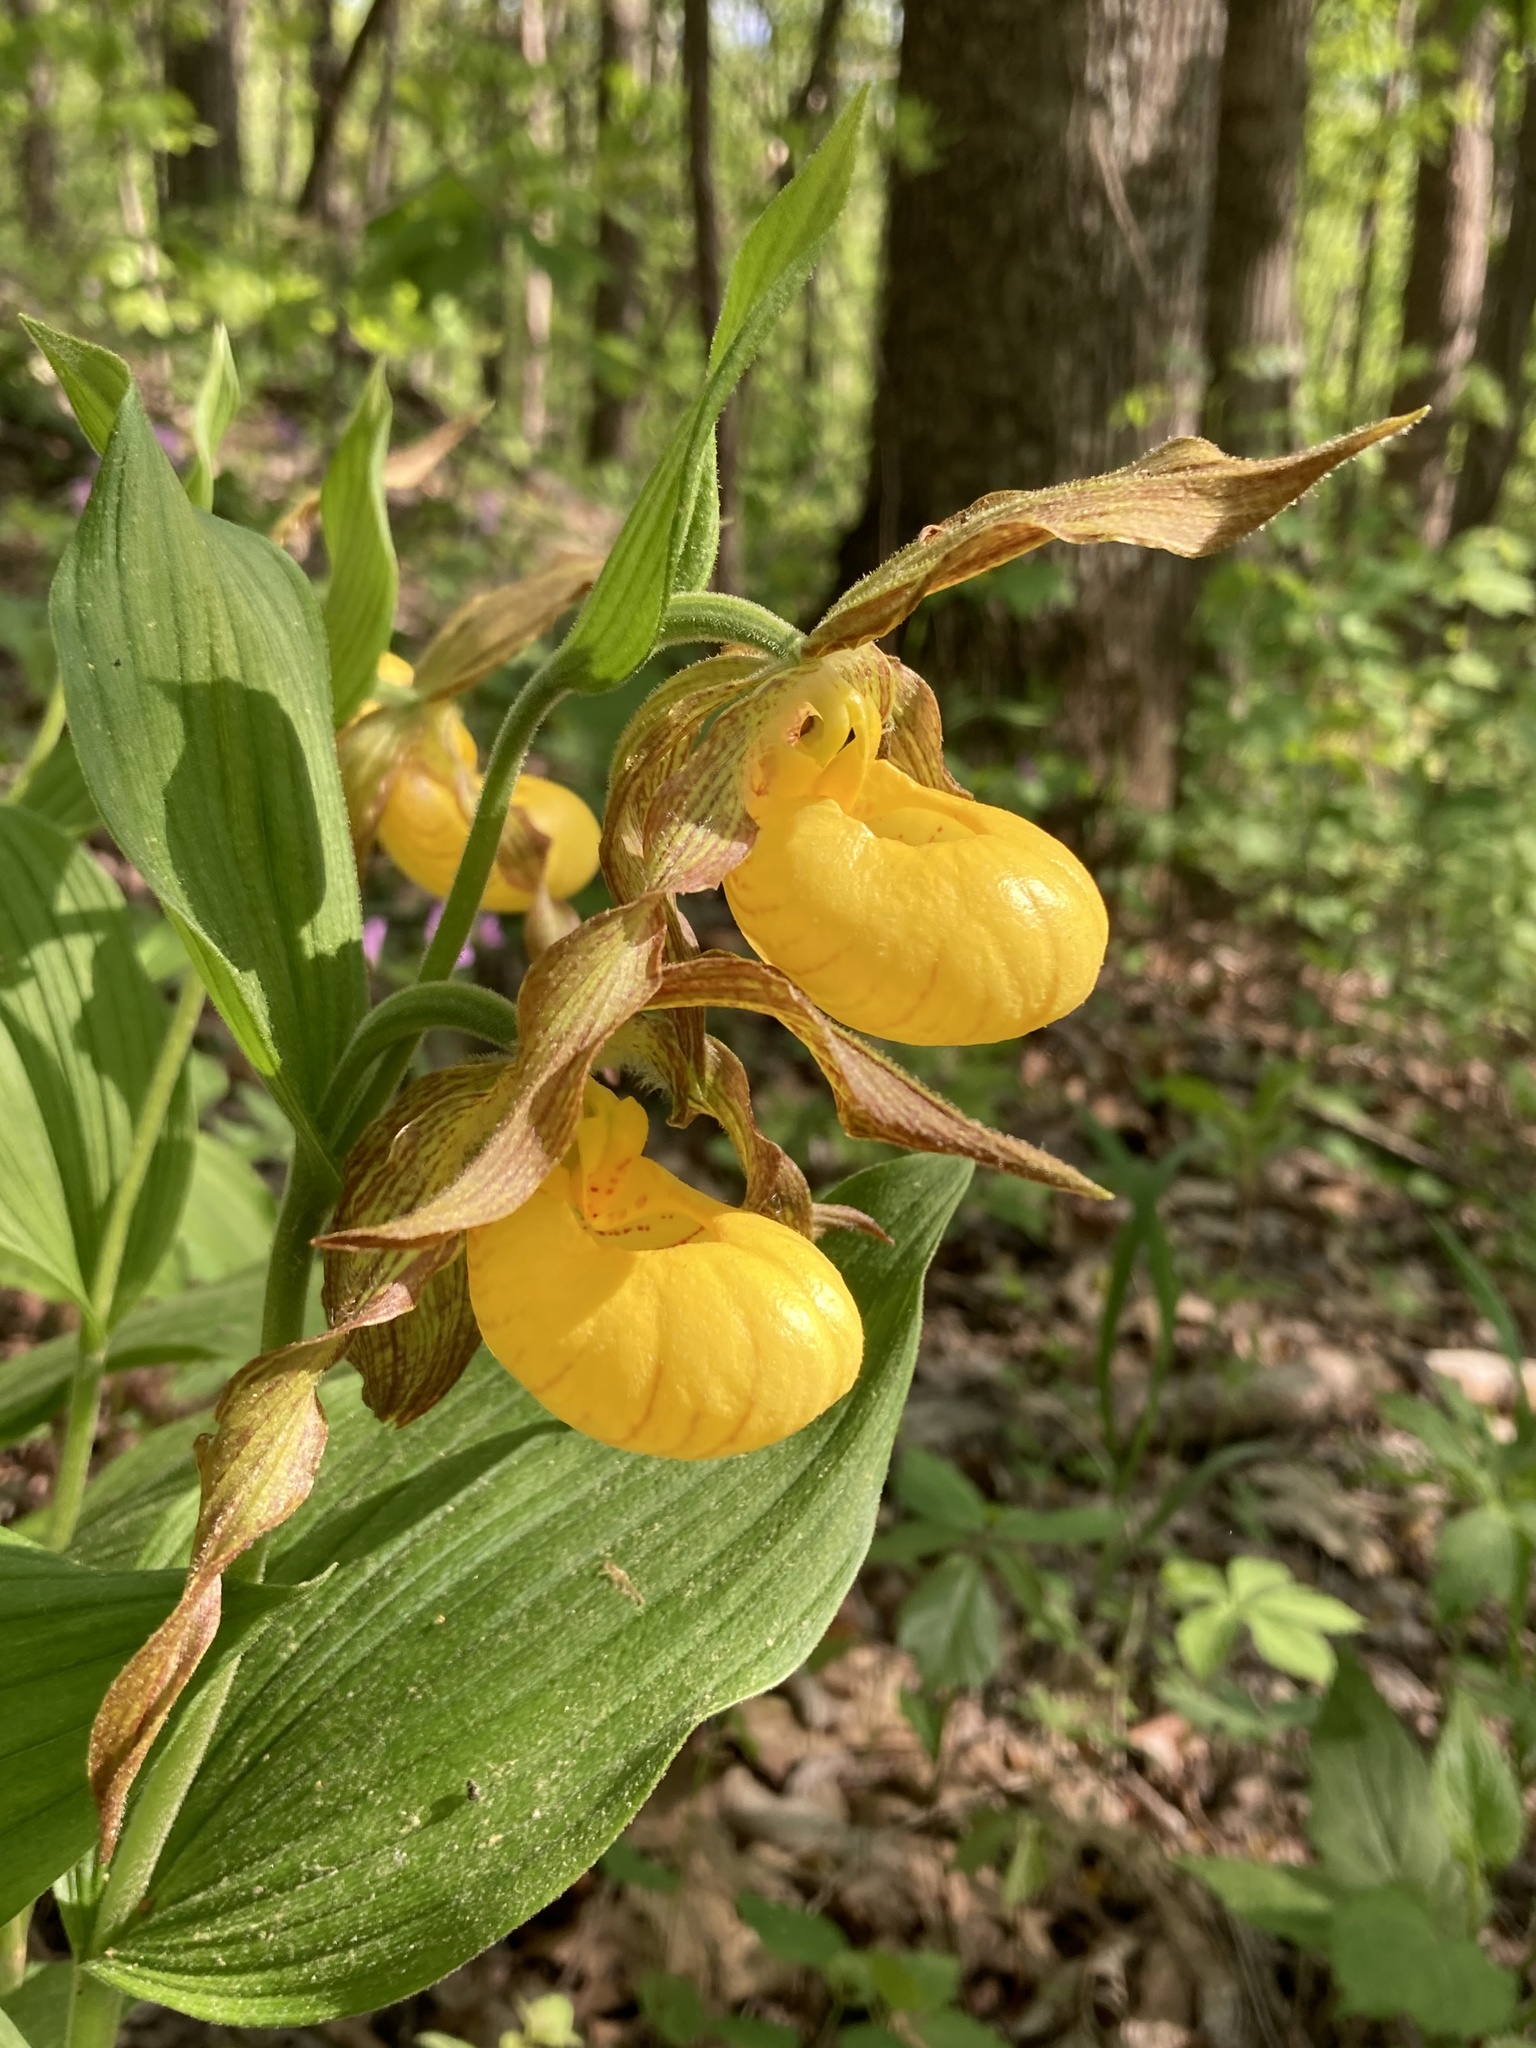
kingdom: Plantae
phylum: Tracheophyta
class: Liliopsida
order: Asparagales
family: Orchidaceae
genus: Cypripedium
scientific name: Cypripedium parviflorum
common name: American yellow lady's-slipper
